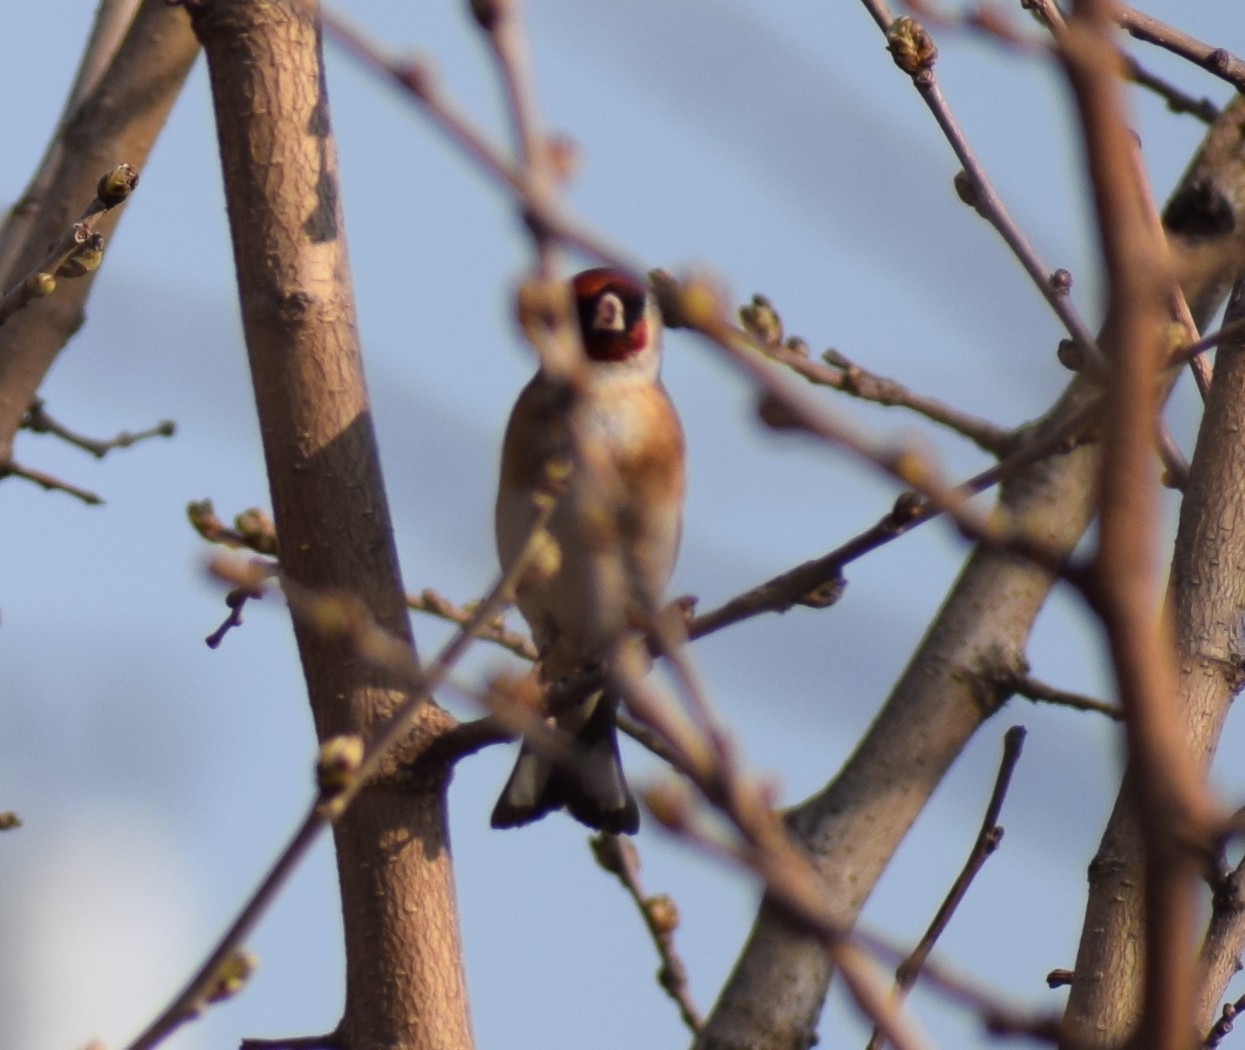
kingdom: Animalia
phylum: Chordata
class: Aves
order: Passeriformes
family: Fringillidae
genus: Carduelis
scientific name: Carduelis carduelis
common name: European goldfinch
